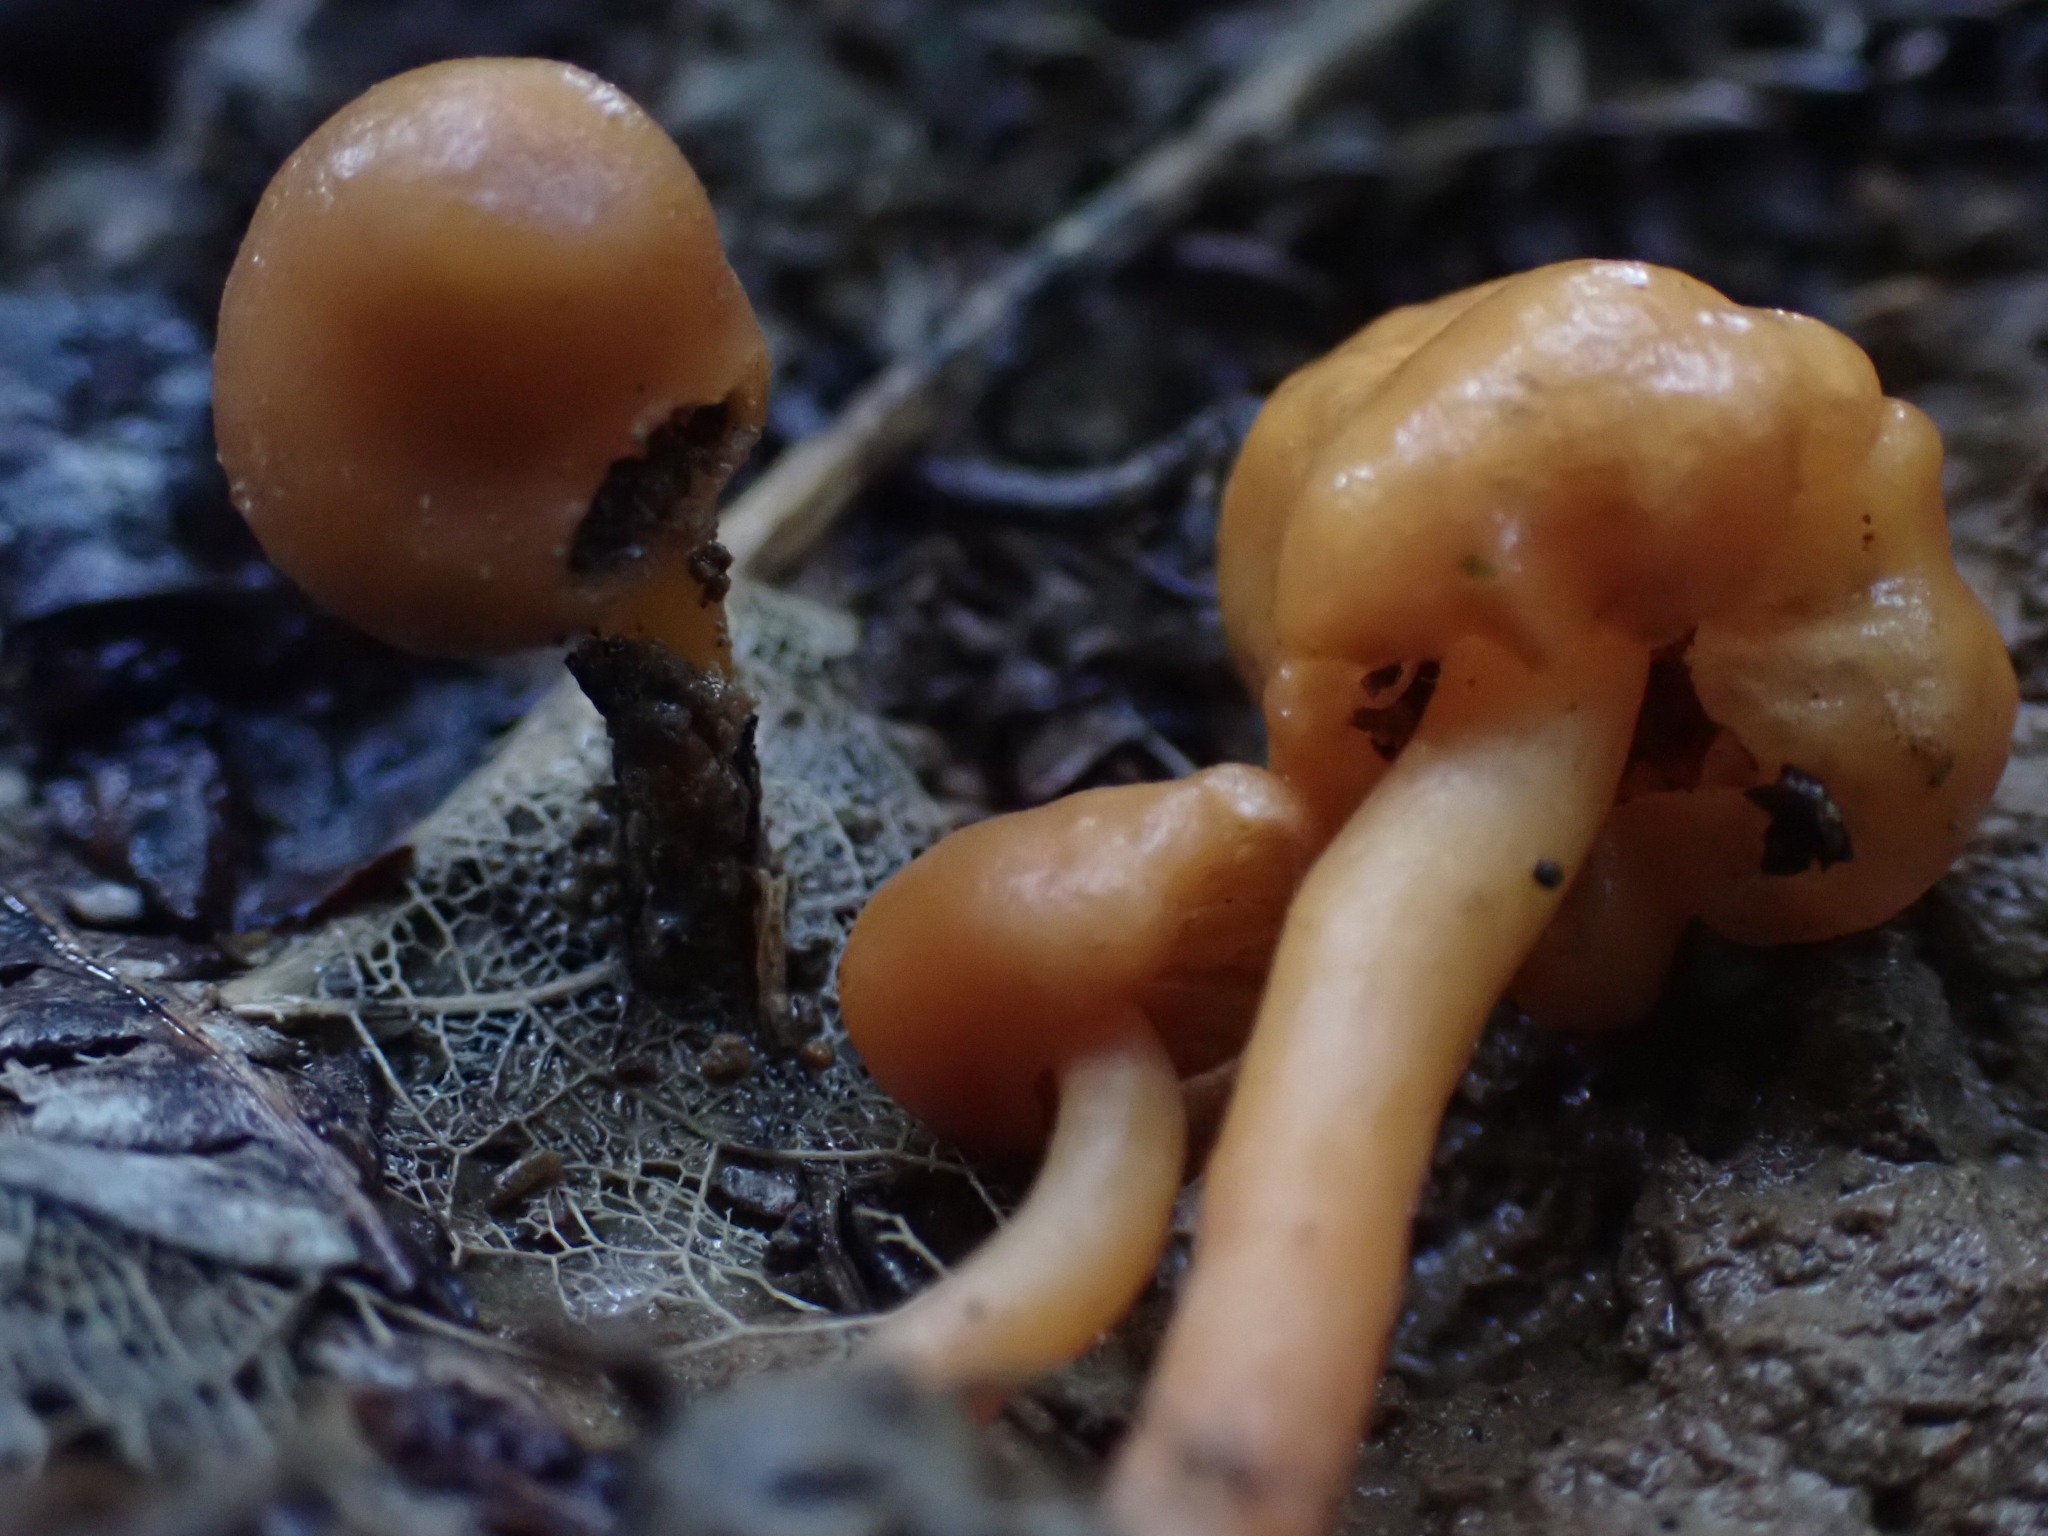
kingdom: Fungi
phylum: Basidiomycota
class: Agaricomycetes
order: Agaricales
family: Macrocystidiaceae
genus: Macrocystidia
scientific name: Macrocystidia reducta
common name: The fishy pouch
